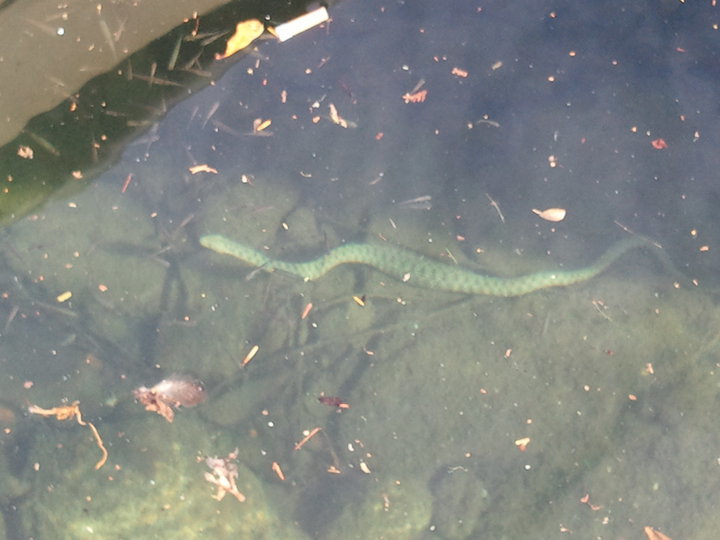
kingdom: Animalia
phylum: Chordata
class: Squamata
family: Colubridae
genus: Natrix
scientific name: Natrix tessellata
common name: Dice snake
